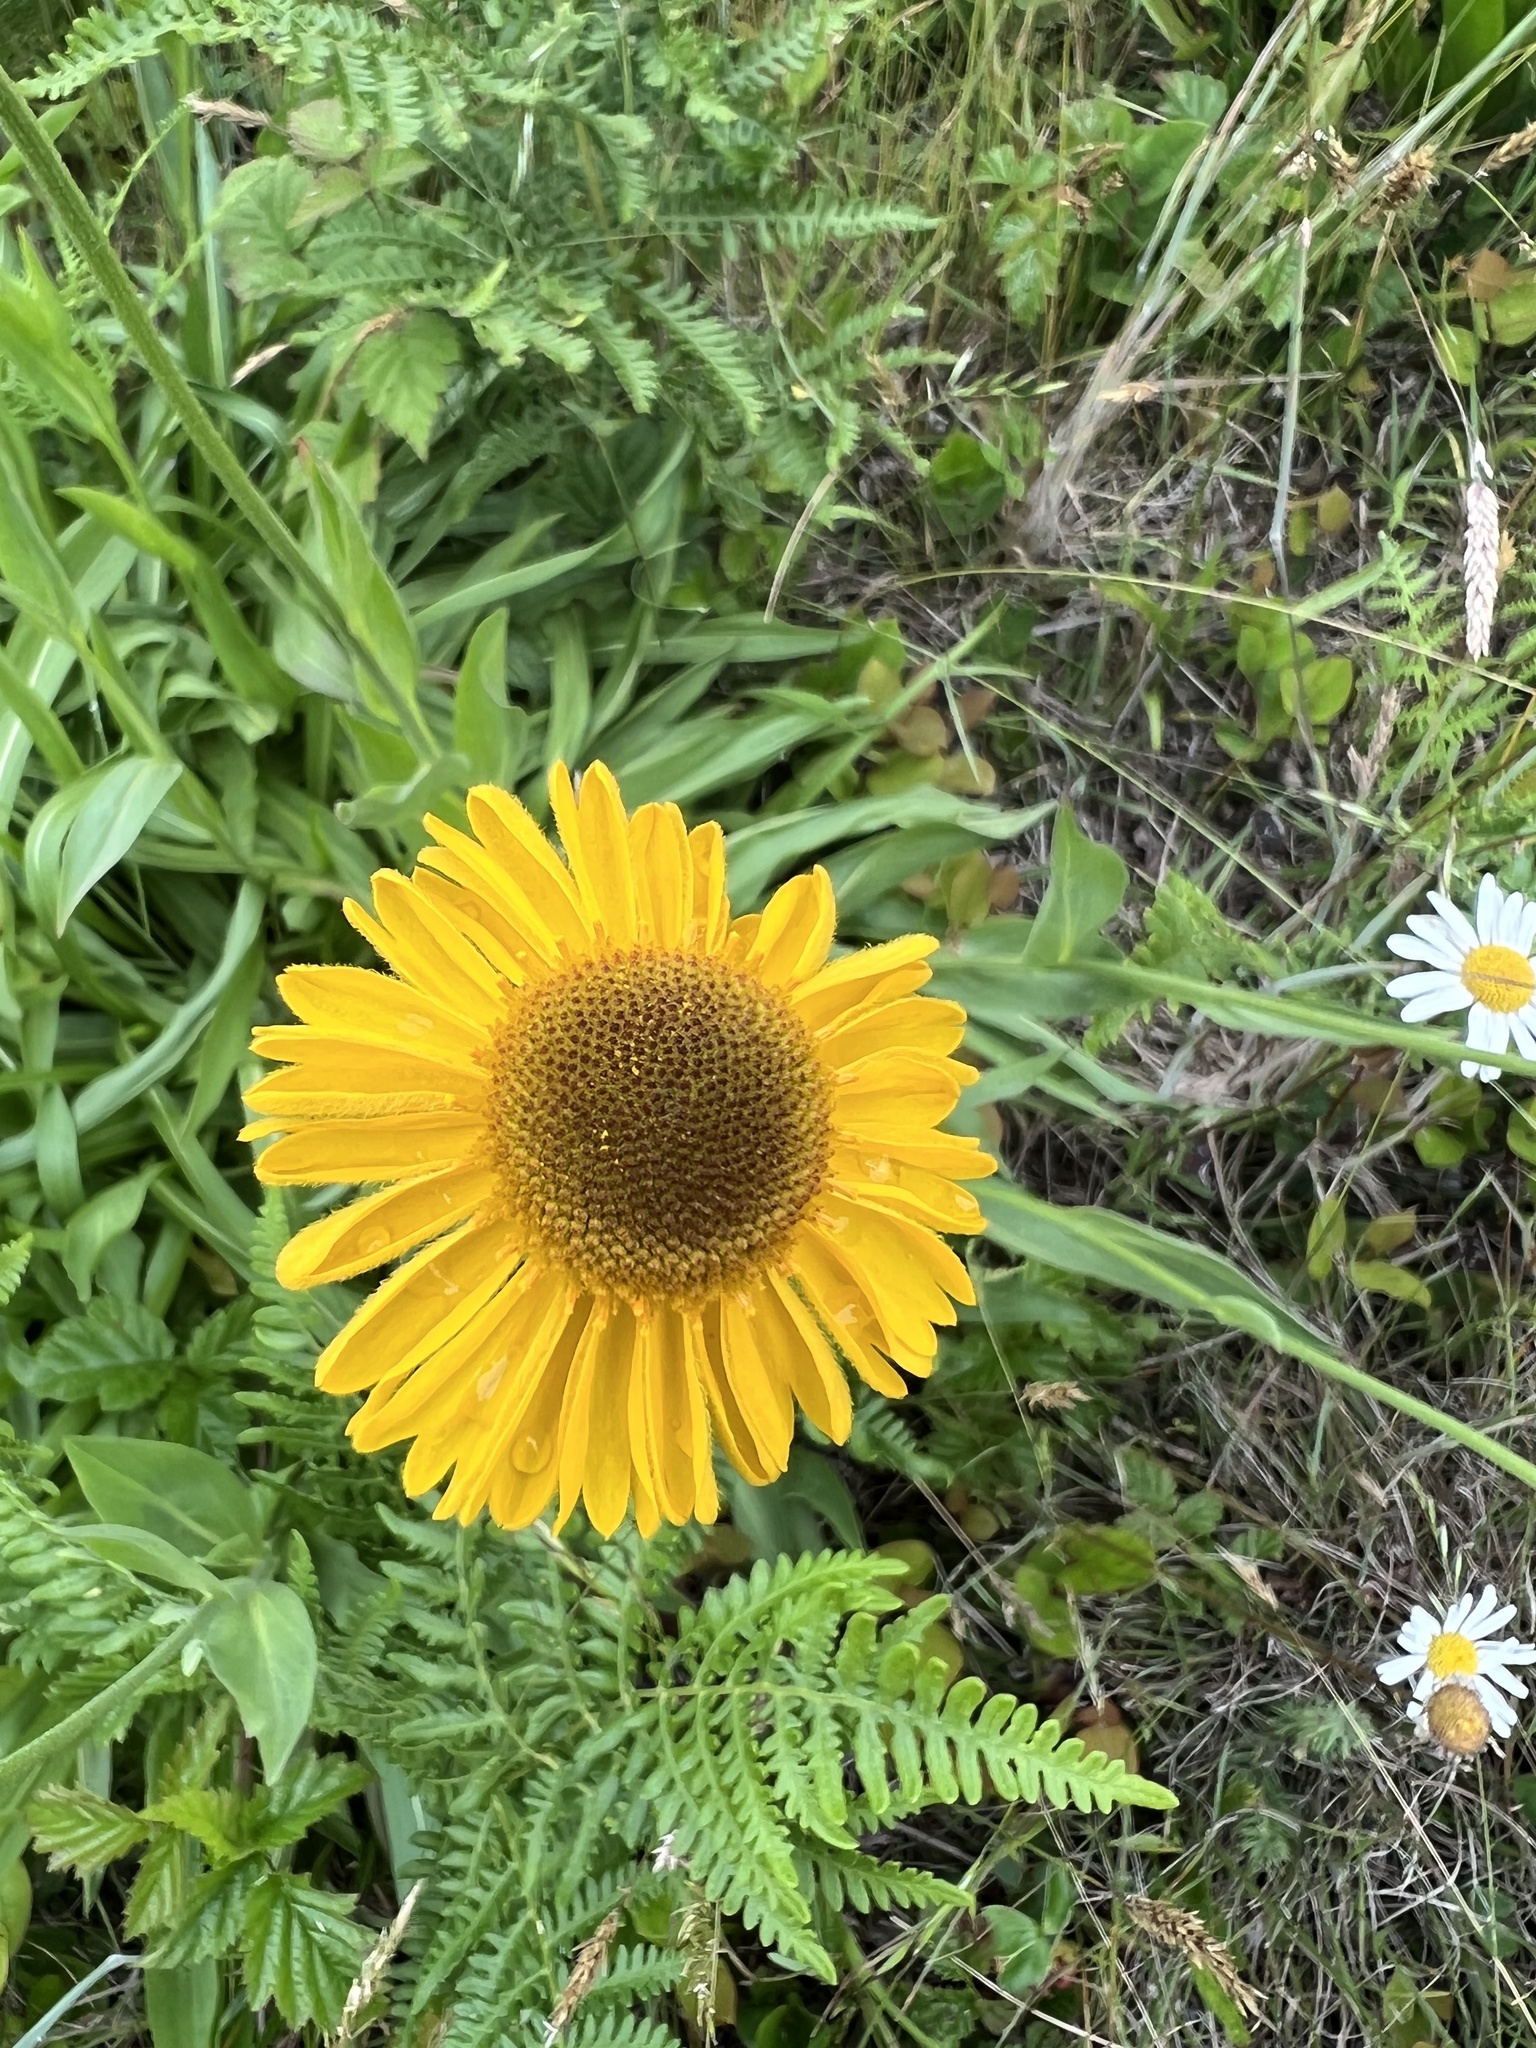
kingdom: Plantae
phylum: Tracheophyta
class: Magnoliopsida
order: Asterales
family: Asteraceae
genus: Helenium
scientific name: Helenium bolanderi
